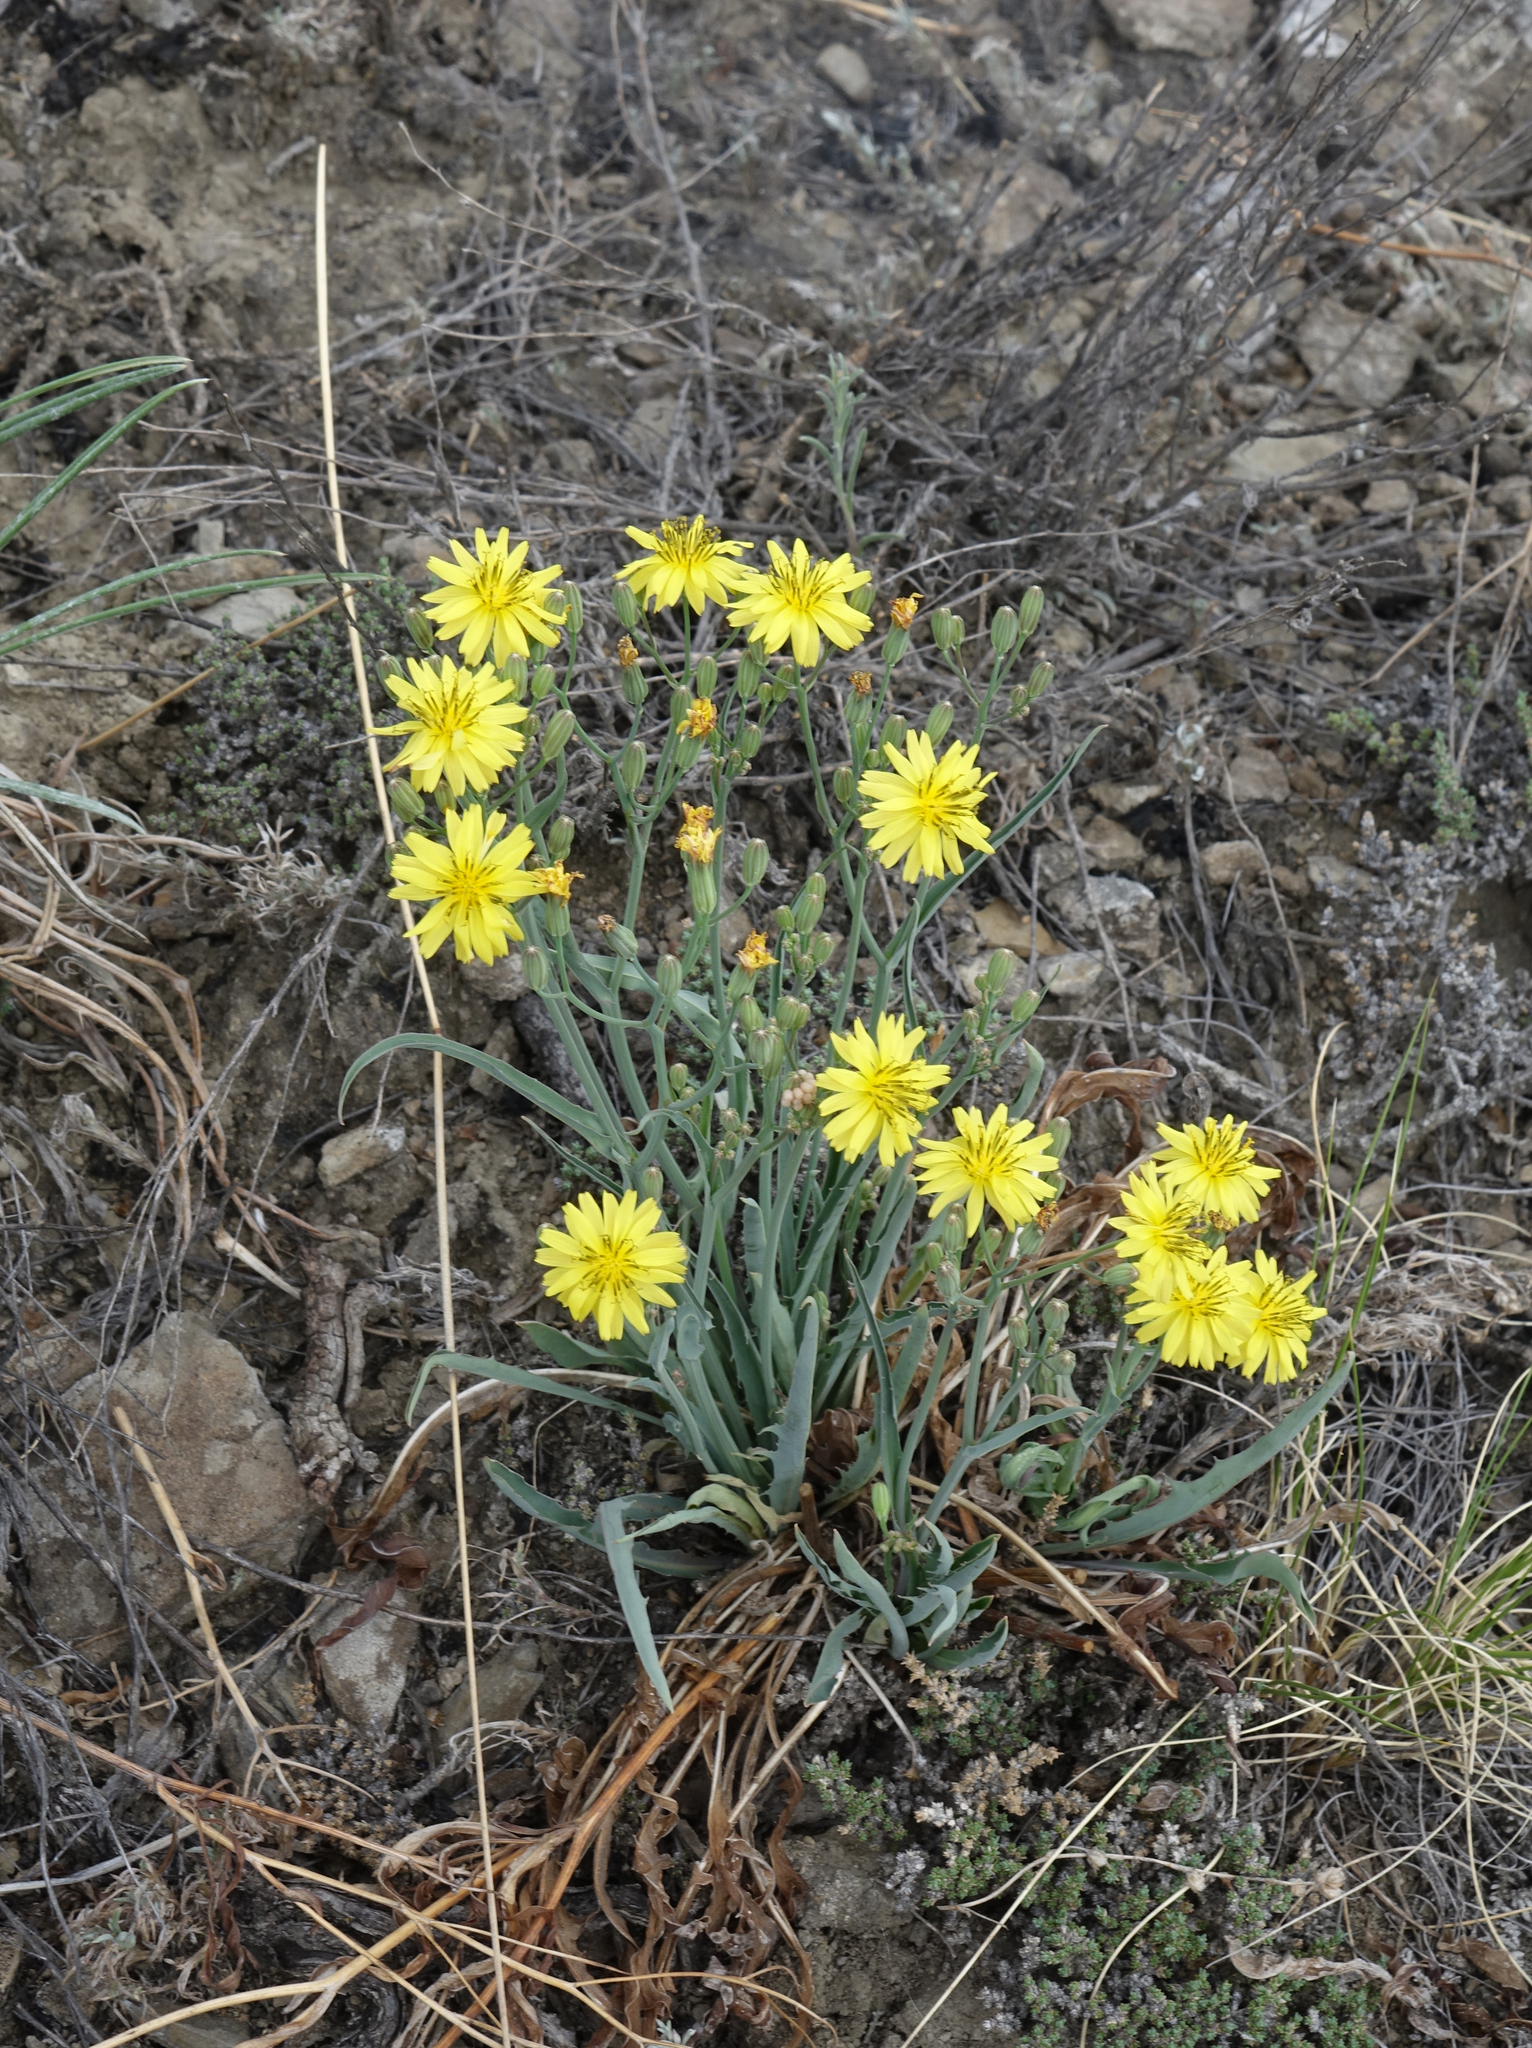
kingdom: Plantae
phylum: Tracheophyta
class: Magnoliopsida
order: Asterales
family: Asteraceae
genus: Ixeris
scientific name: Ixeris chinensis
